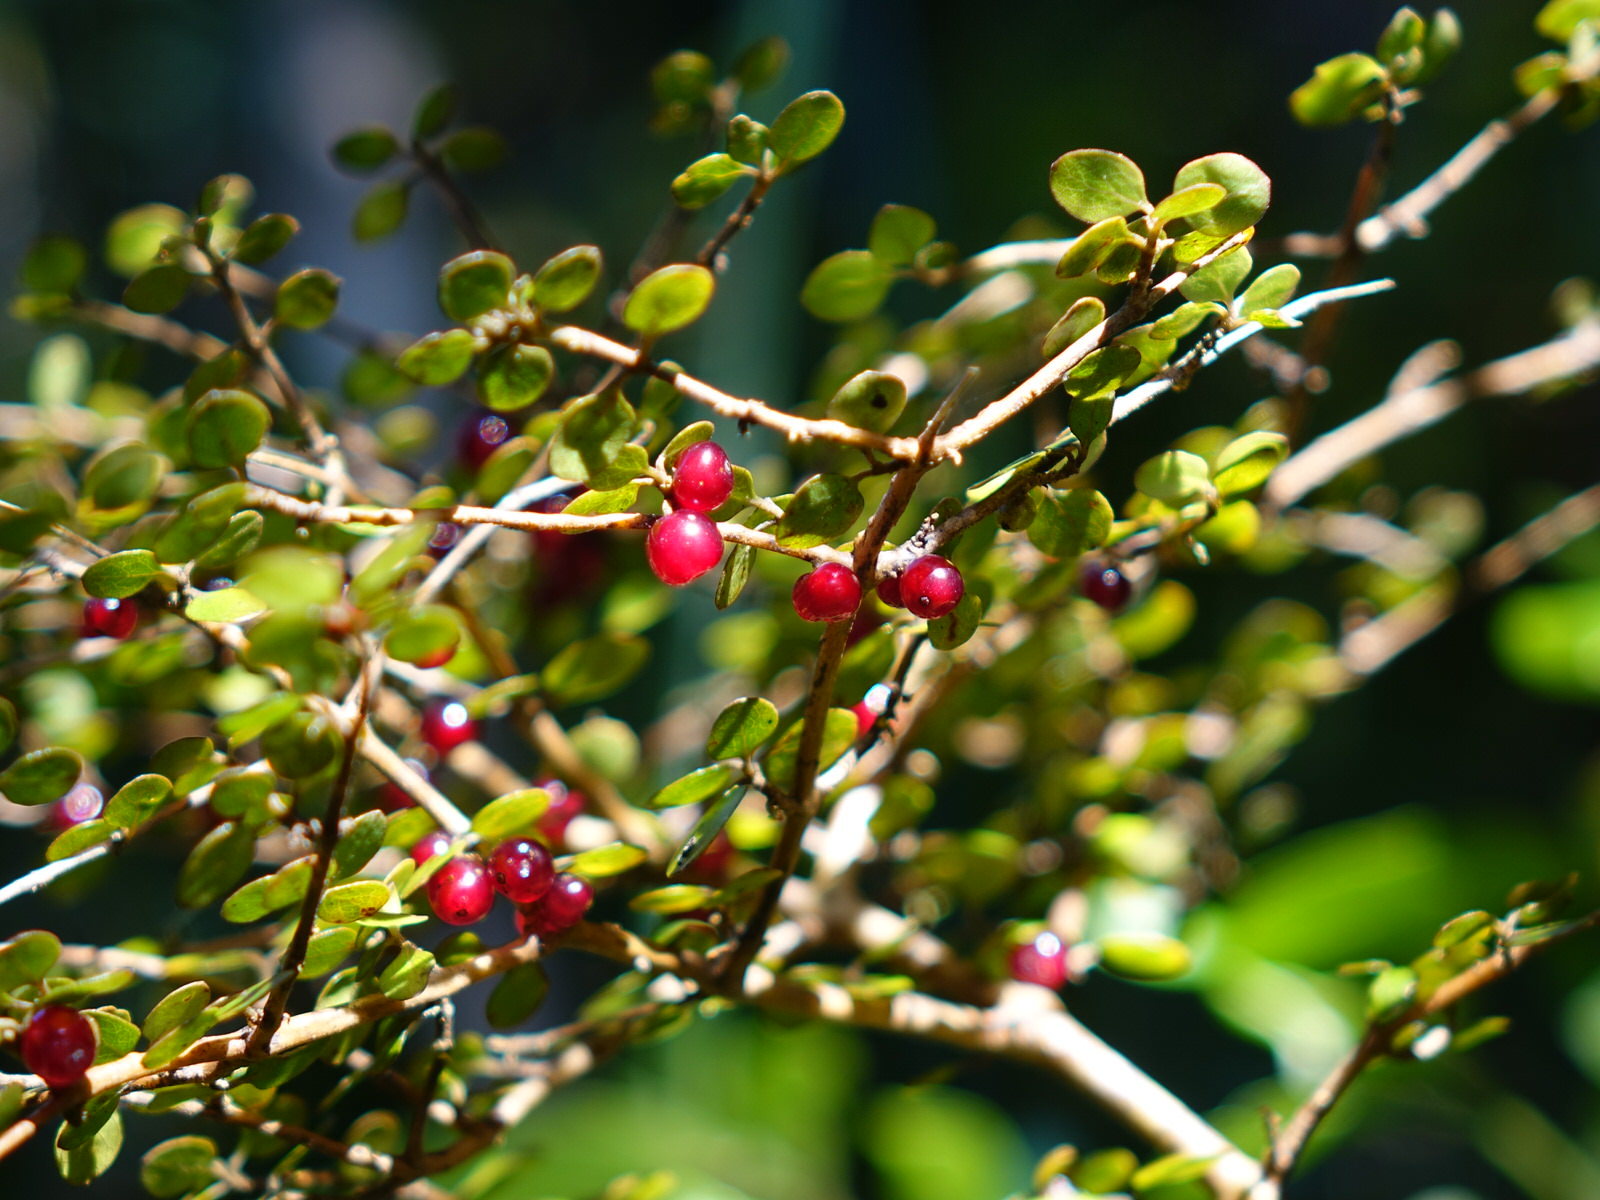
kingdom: Plantae
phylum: Tracheophyta
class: Magnoliopsida
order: Gentianales
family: Rubiaceae
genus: Coprosma
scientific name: Coprosma rhamnoides
